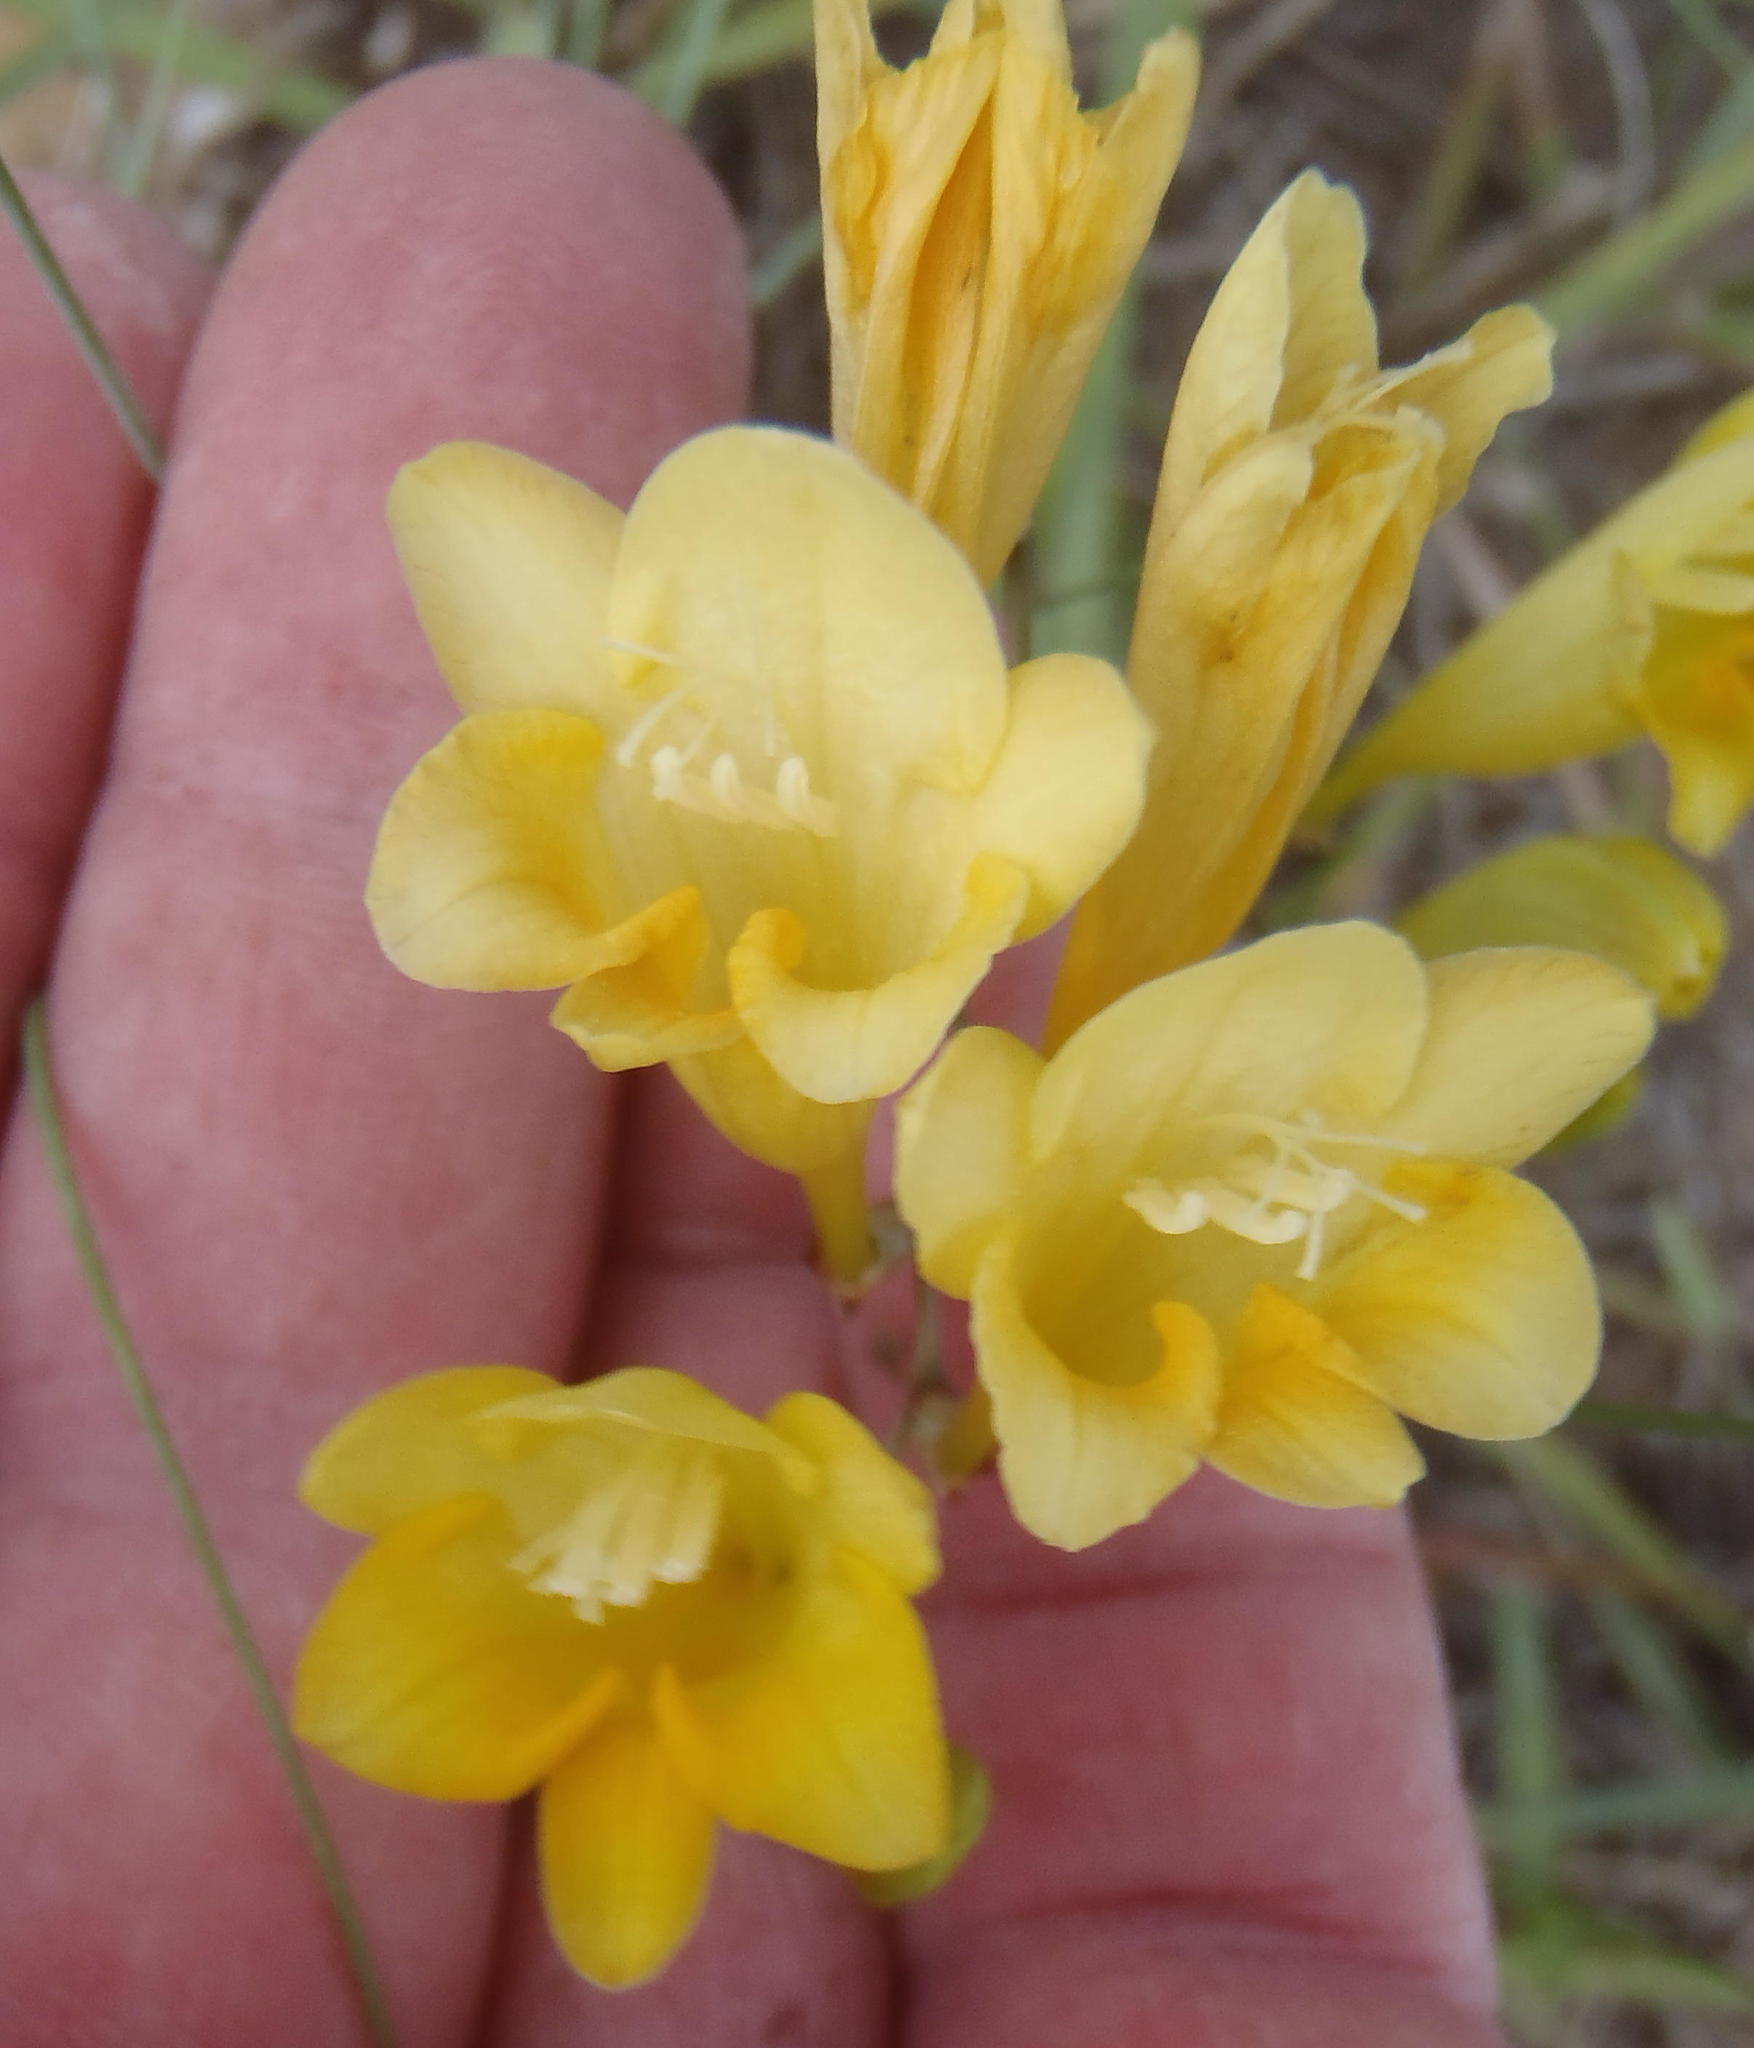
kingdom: Plantae
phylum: Tracheophyta
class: Liliopsida
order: Asparagales
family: Iridaceae
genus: Freesia
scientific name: Freesia corymbosa
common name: Common freesia
